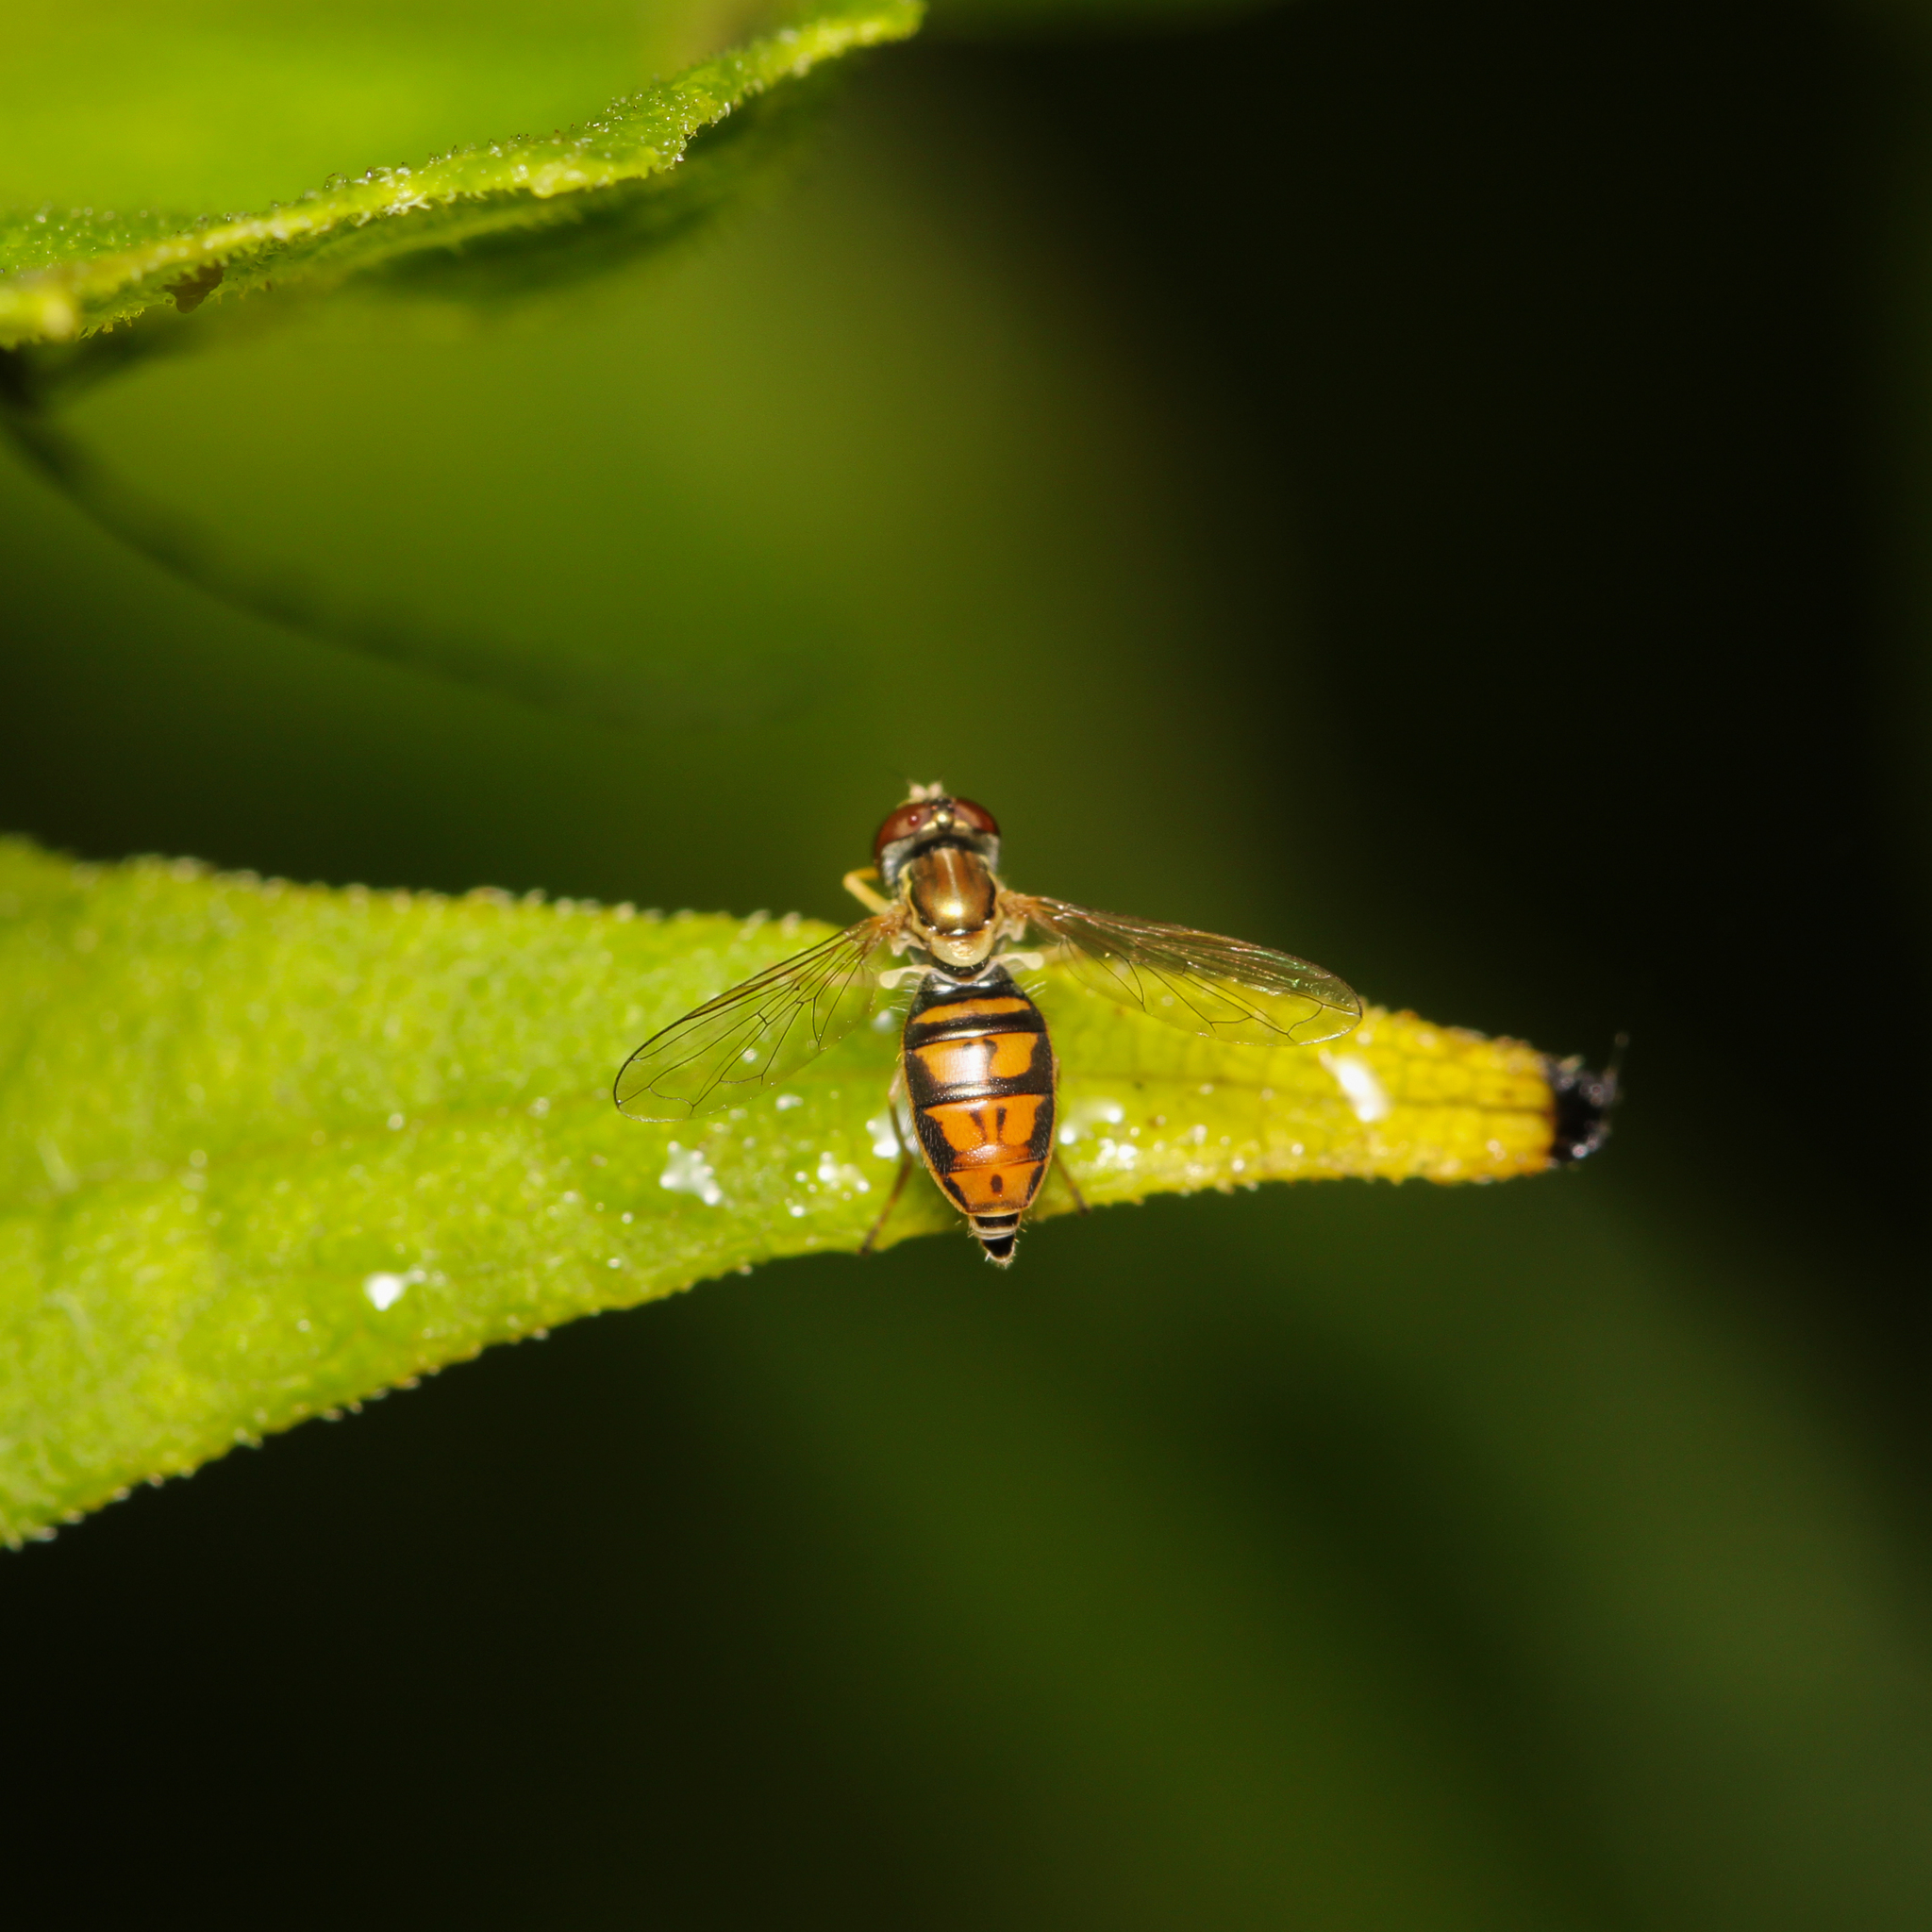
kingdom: Animalia
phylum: Arthropoda
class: Insecta
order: Diptera
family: Syrphidae
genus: Toxomerus
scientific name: Toxomerus marginatus
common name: Syrphid fly
